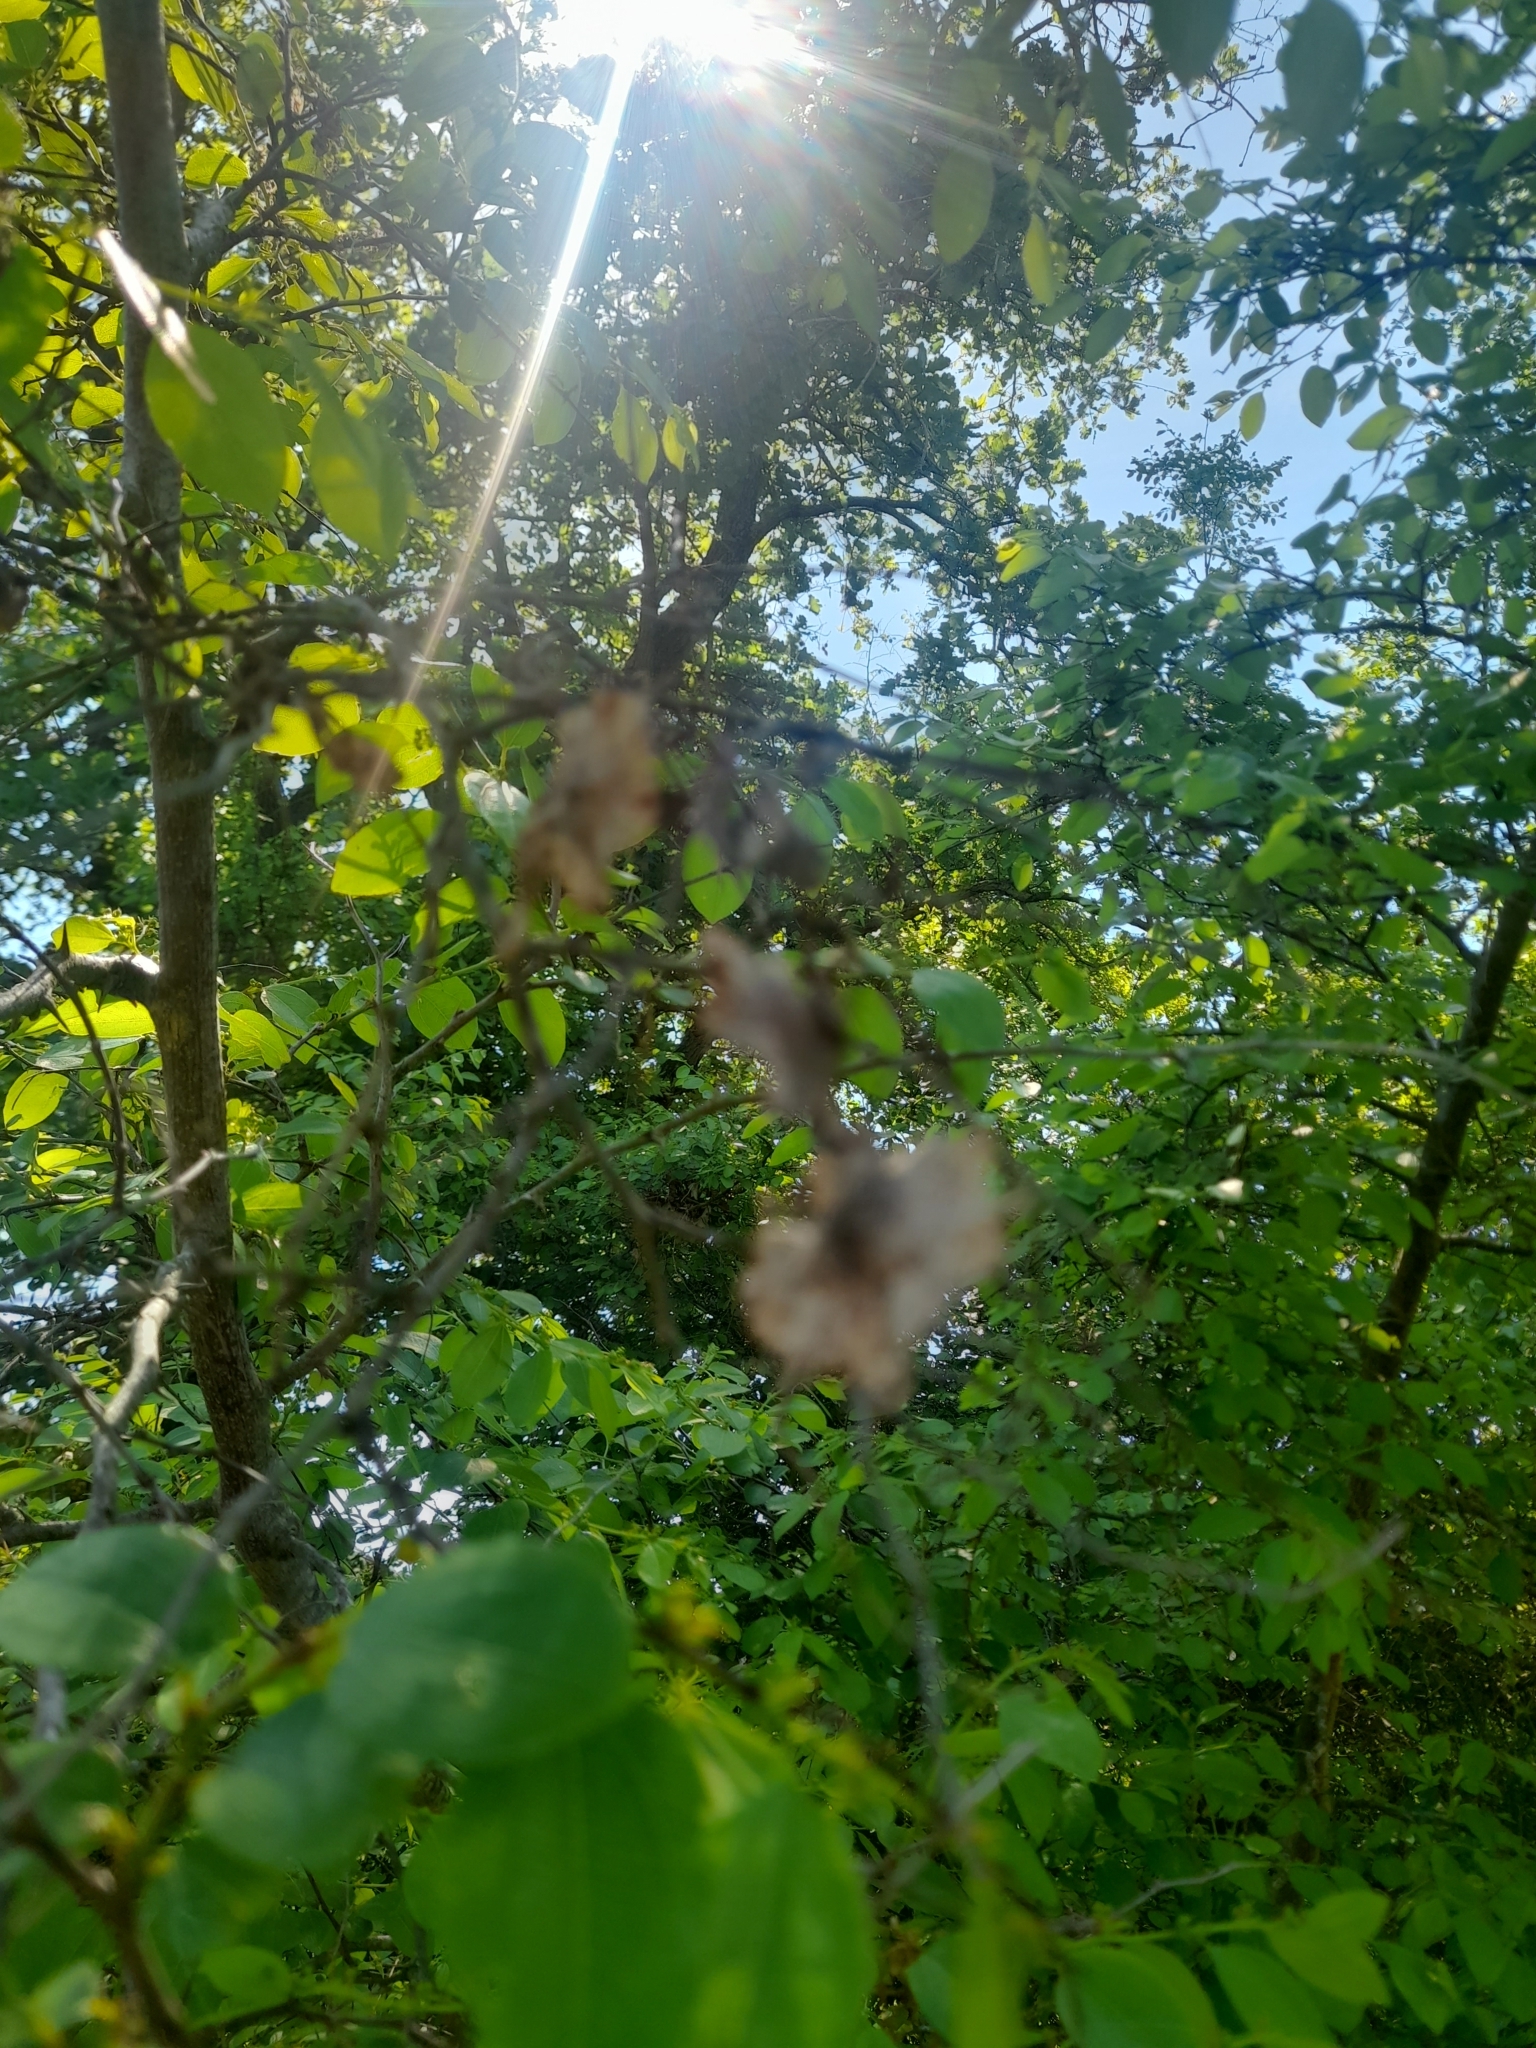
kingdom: Plantae
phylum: Tracheophyta
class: Magnoliopsida
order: Rosales
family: Rhamnaceae
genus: Paliurus
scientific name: Paliurus spina-christi
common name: Jeruselem thorn
